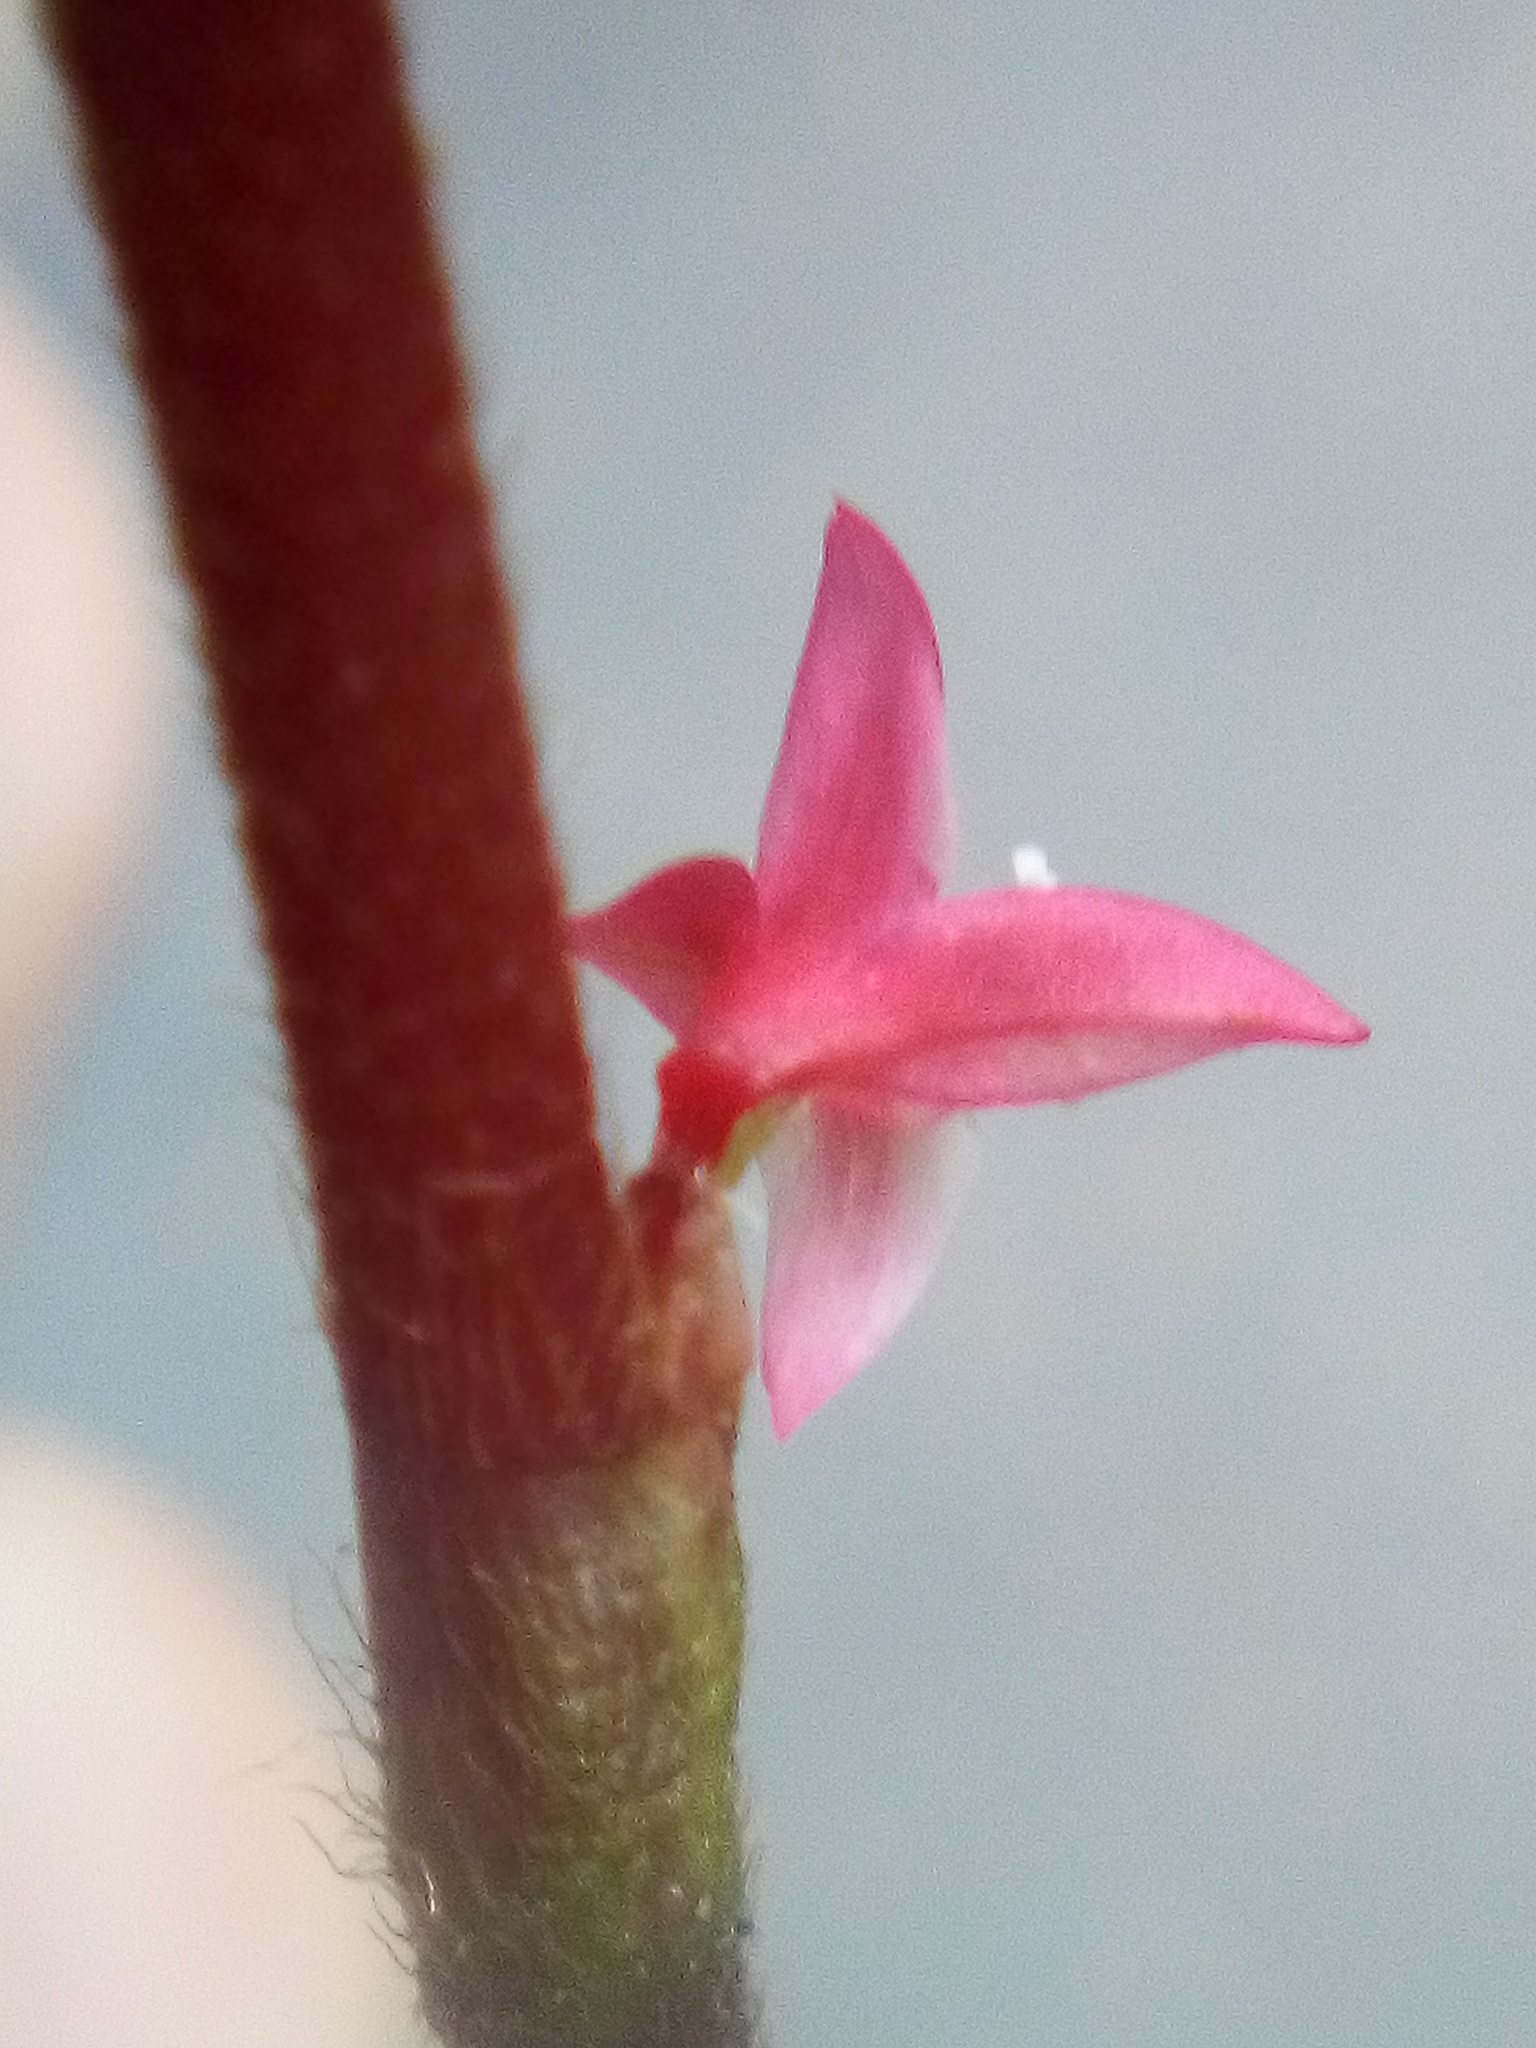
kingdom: Plantae
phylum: Tracheophyta
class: Magnoliopsida
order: Caryophyllales
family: Polygonaceae
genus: Persicaria
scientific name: Persicaria filiformis
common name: Asian jumpseed
